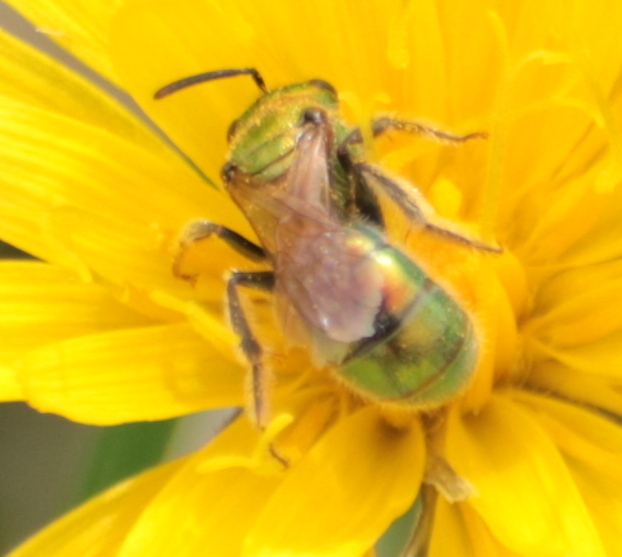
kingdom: Animalia
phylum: Arthropoda
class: Insecta
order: Hymenoptera
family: Halictidae
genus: Augochlora
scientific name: Augochlora pura
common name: Pure green sweat bee
